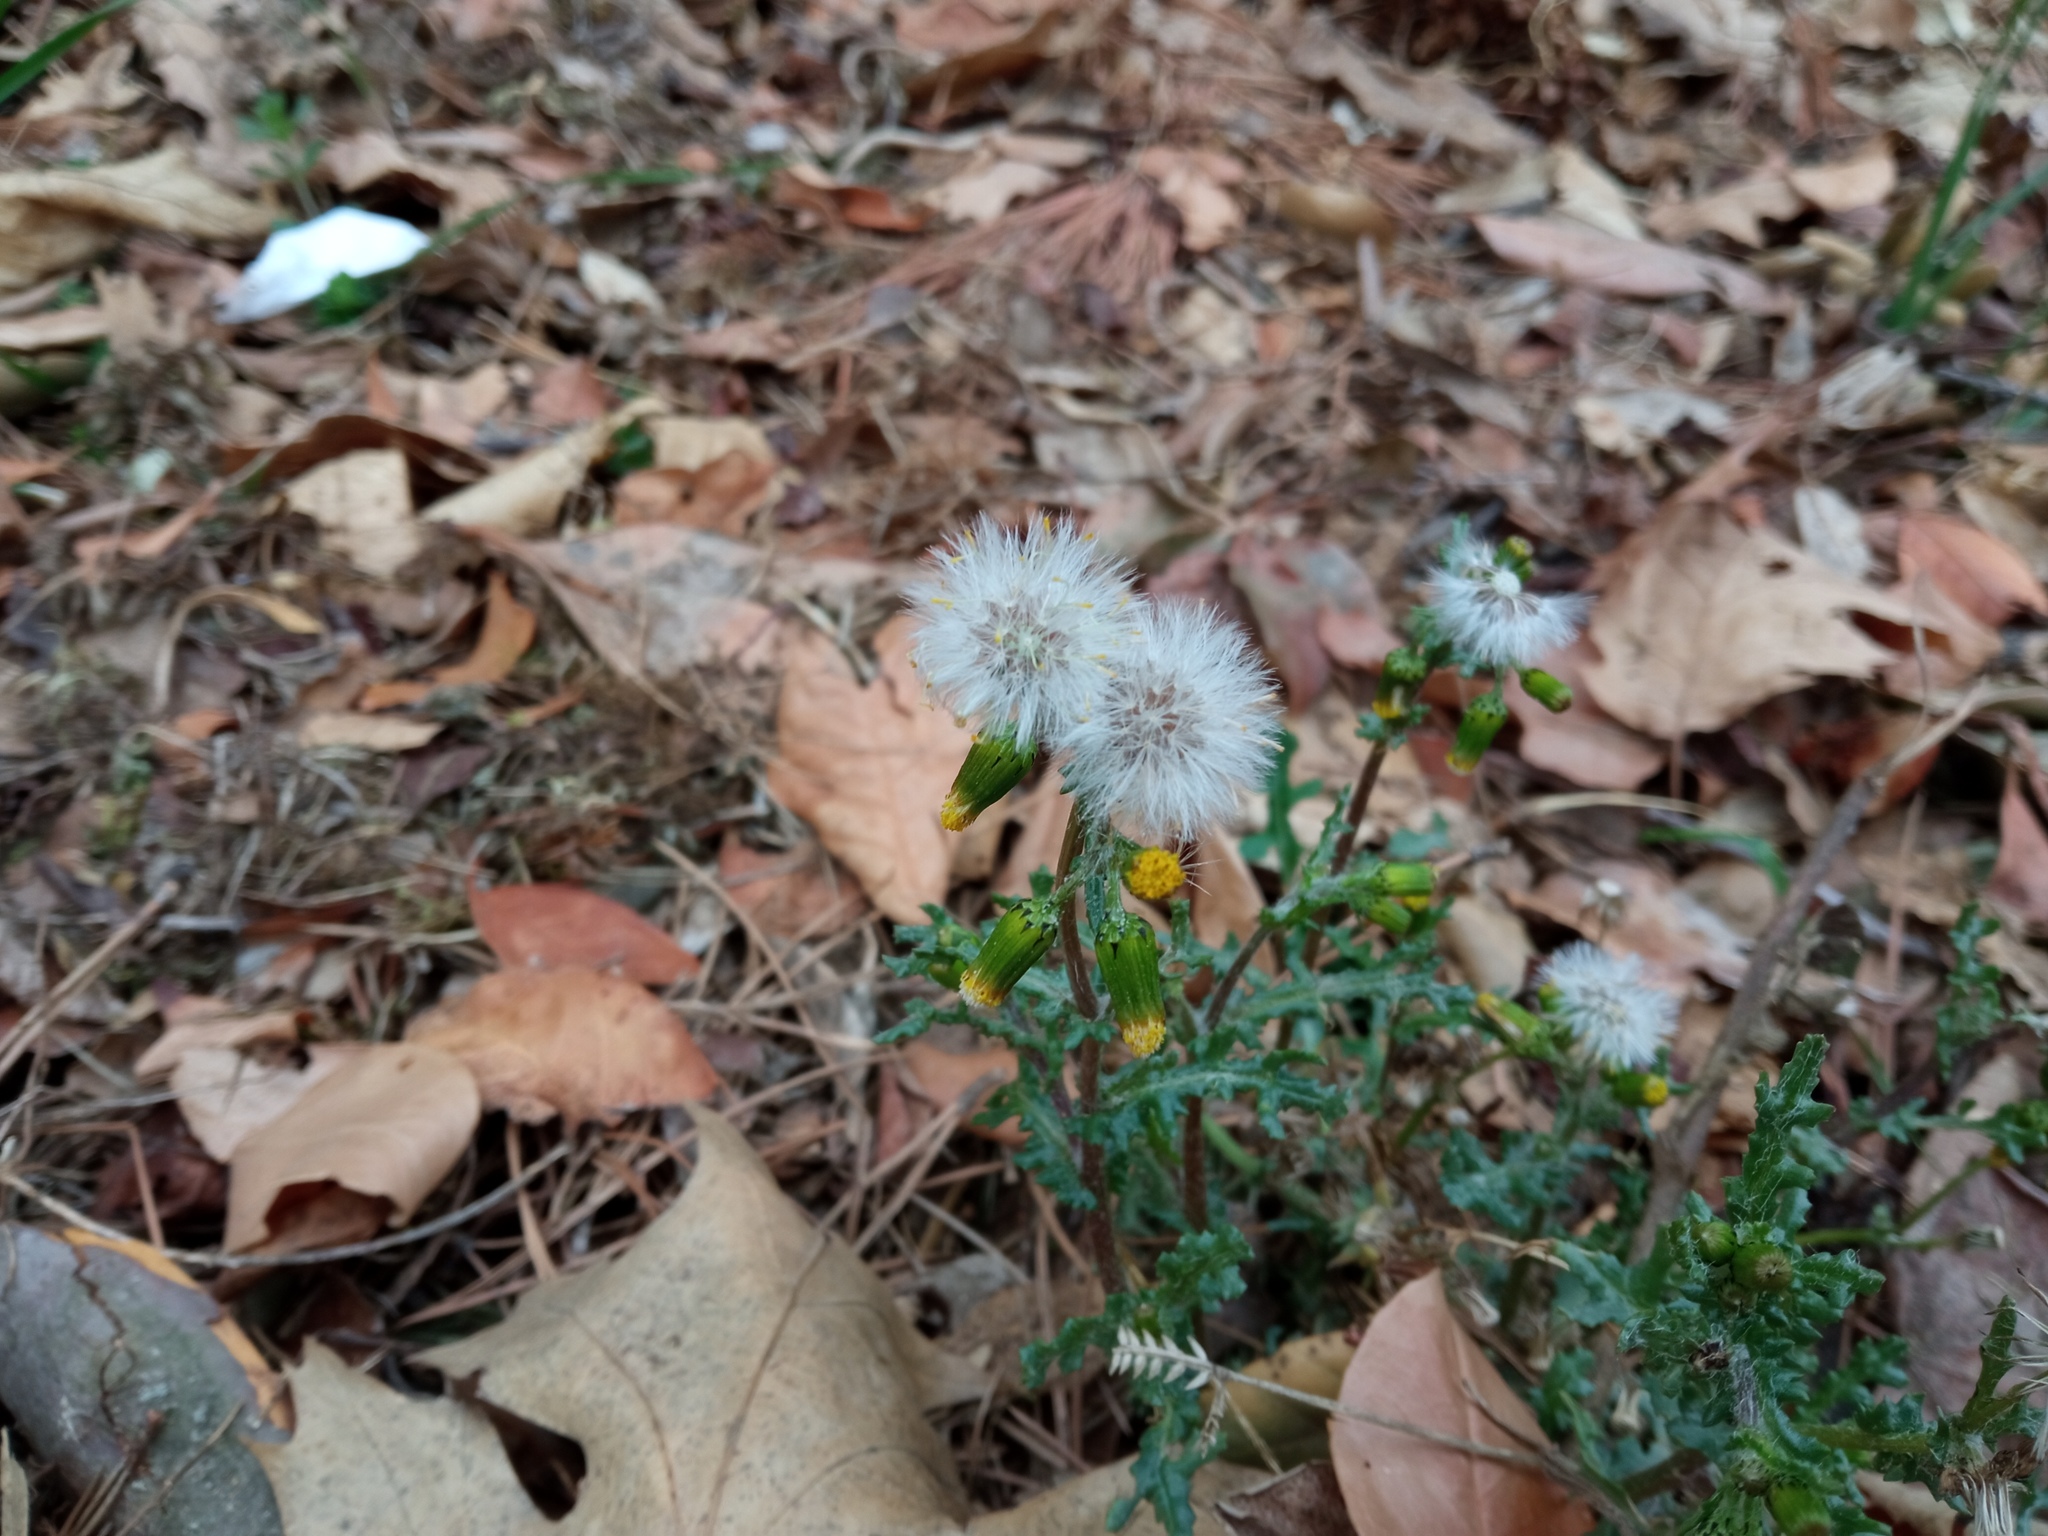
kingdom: Plantae
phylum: Tracheophyta
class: Magnoliopsida
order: Asterales
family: Asteraceae
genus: Senecio
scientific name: Senecio vulgaris
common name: Old-man-in-the-spring
